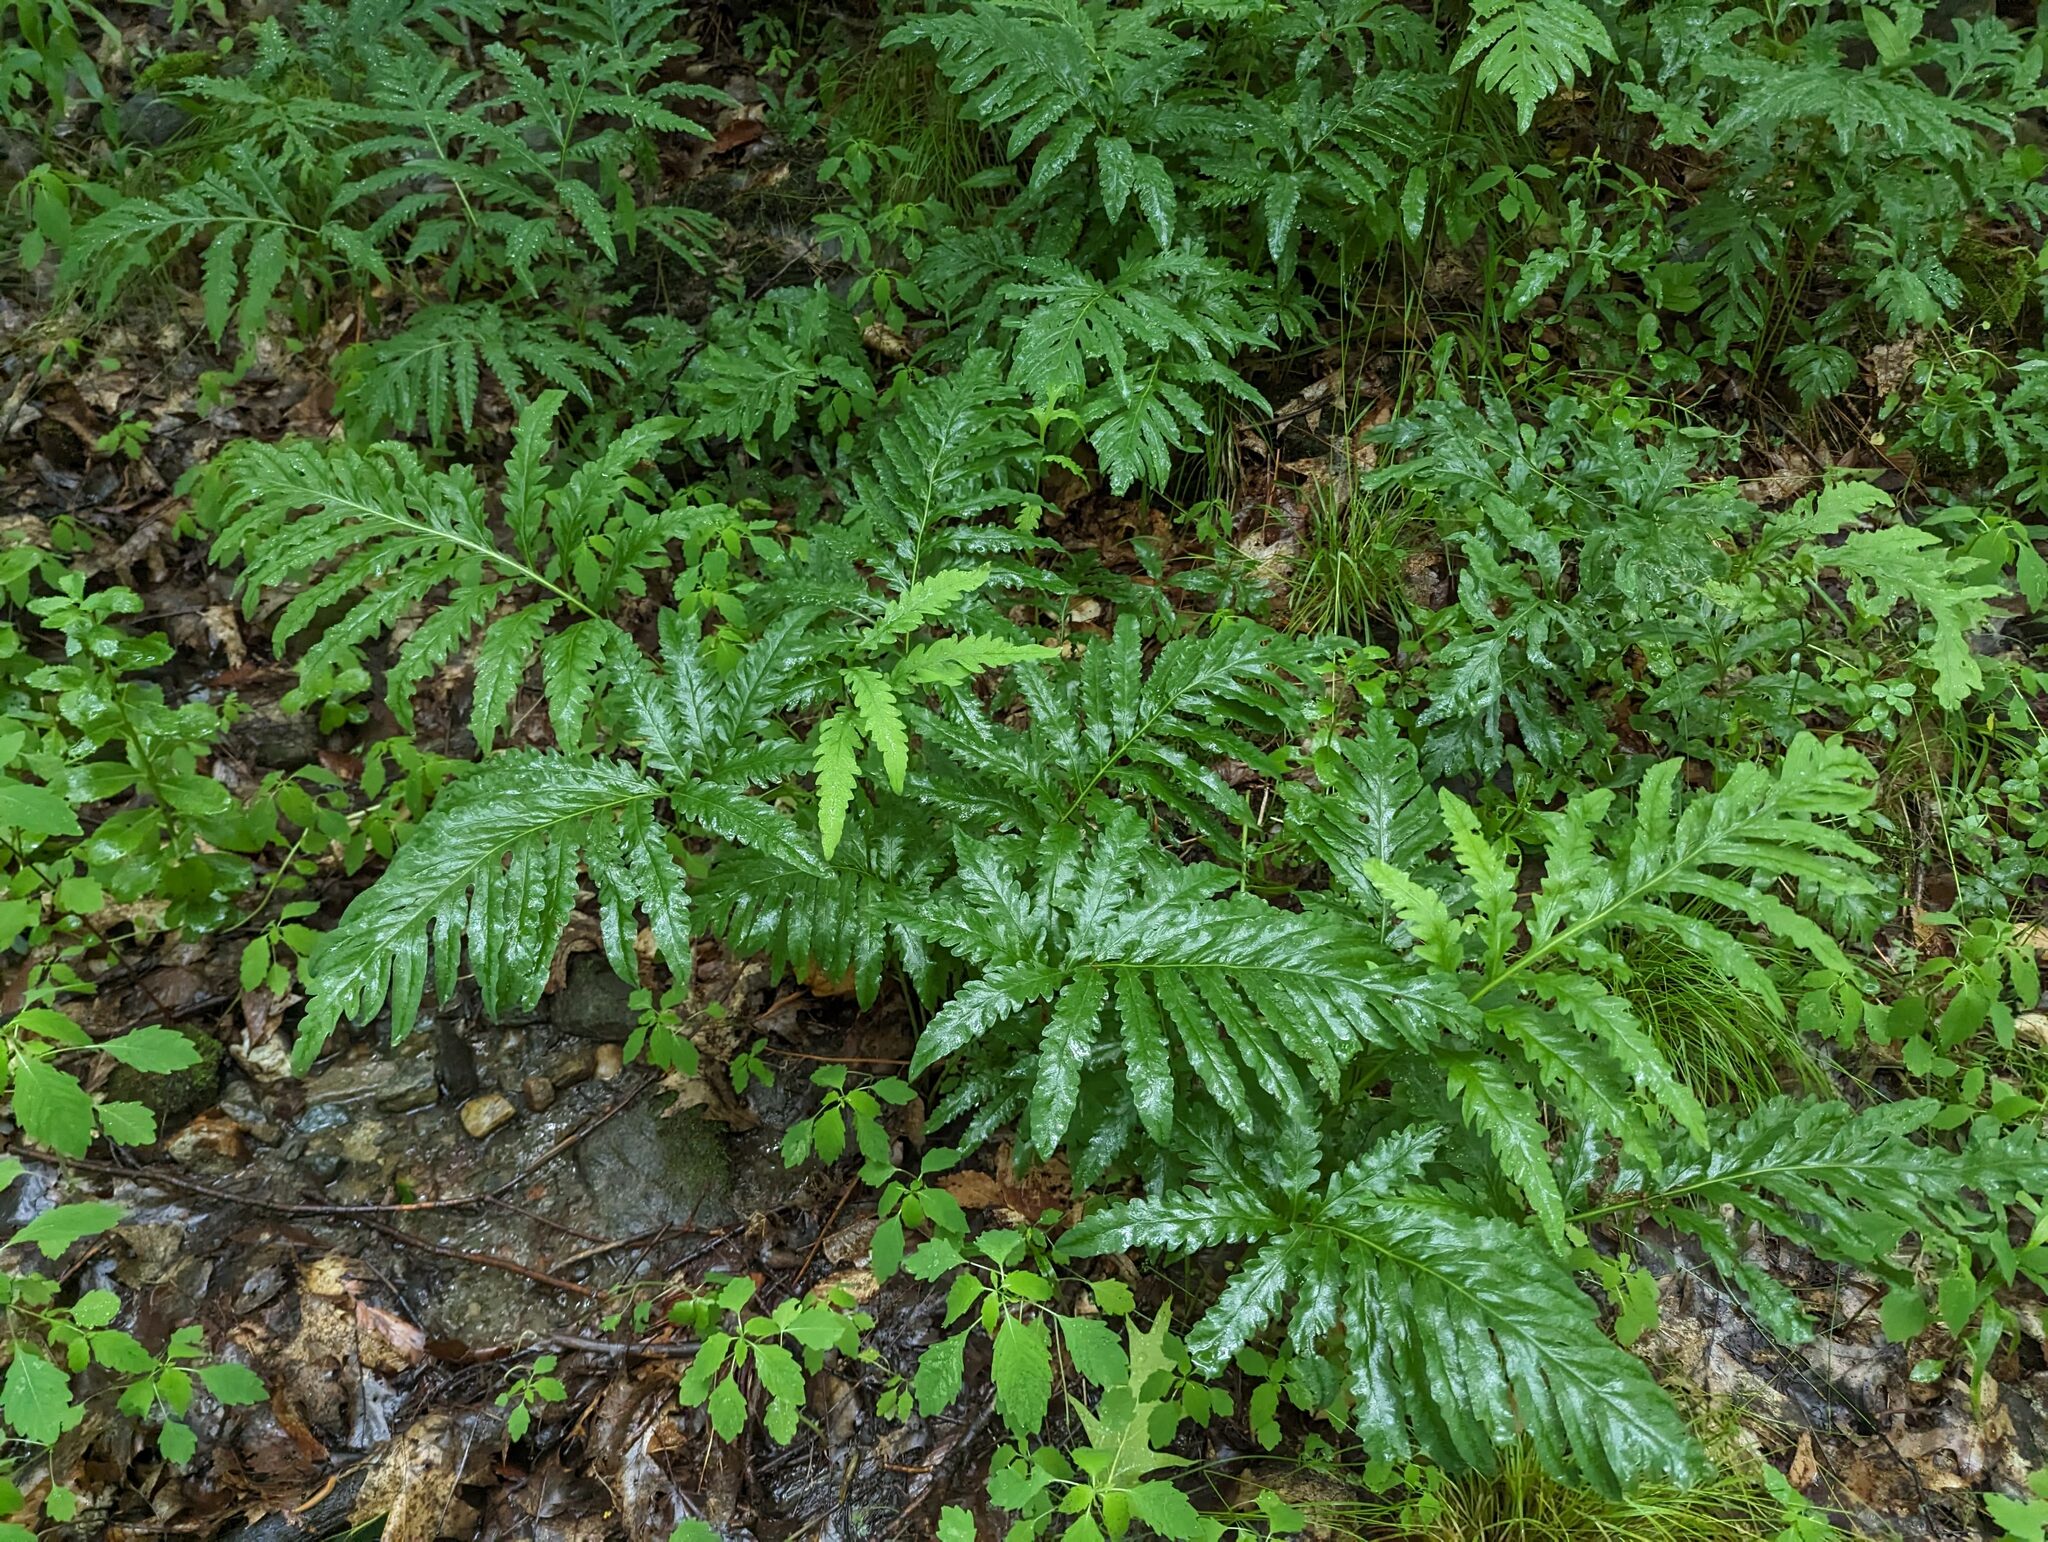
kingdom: Plantae
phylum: Tracheophyta
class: Polypodiopsida
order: Polypodiales
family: Onocleaceae
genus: Onoclea
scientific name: Onoclea sensibilis
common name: Sensitive fern
